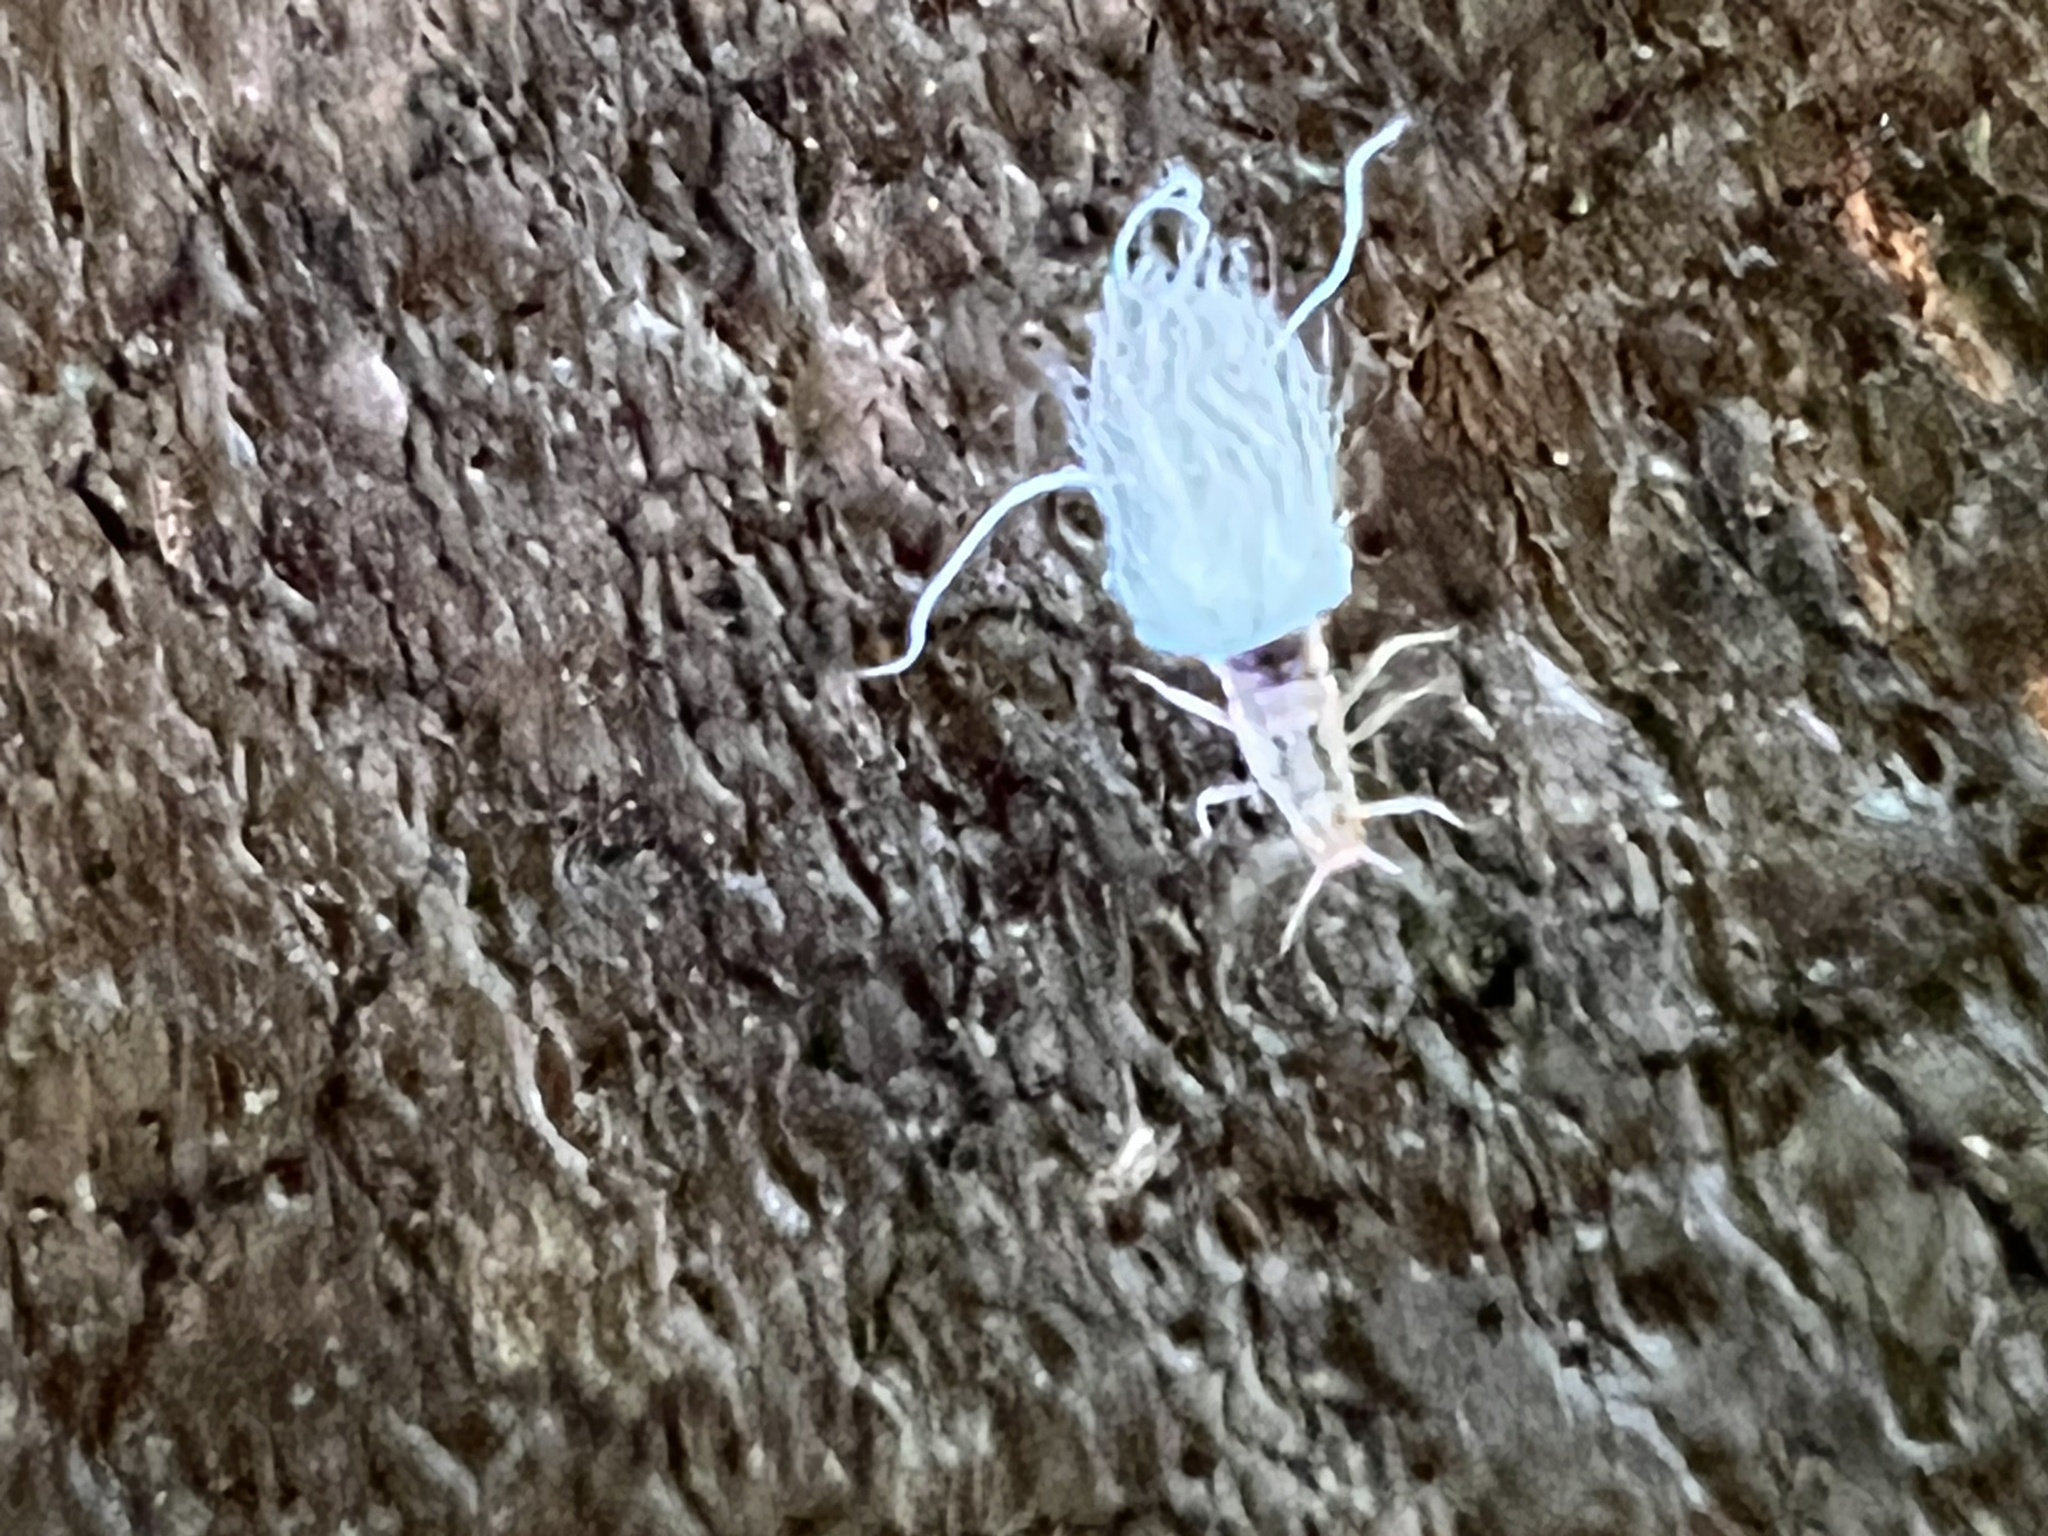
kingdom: Animalia
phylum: Arthropoda
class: Insecta
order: Hemiptera
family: Aphididae
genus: Grylloprociphilus
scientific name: Grylloprociphilus imbricator
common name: Beech blight aphid
